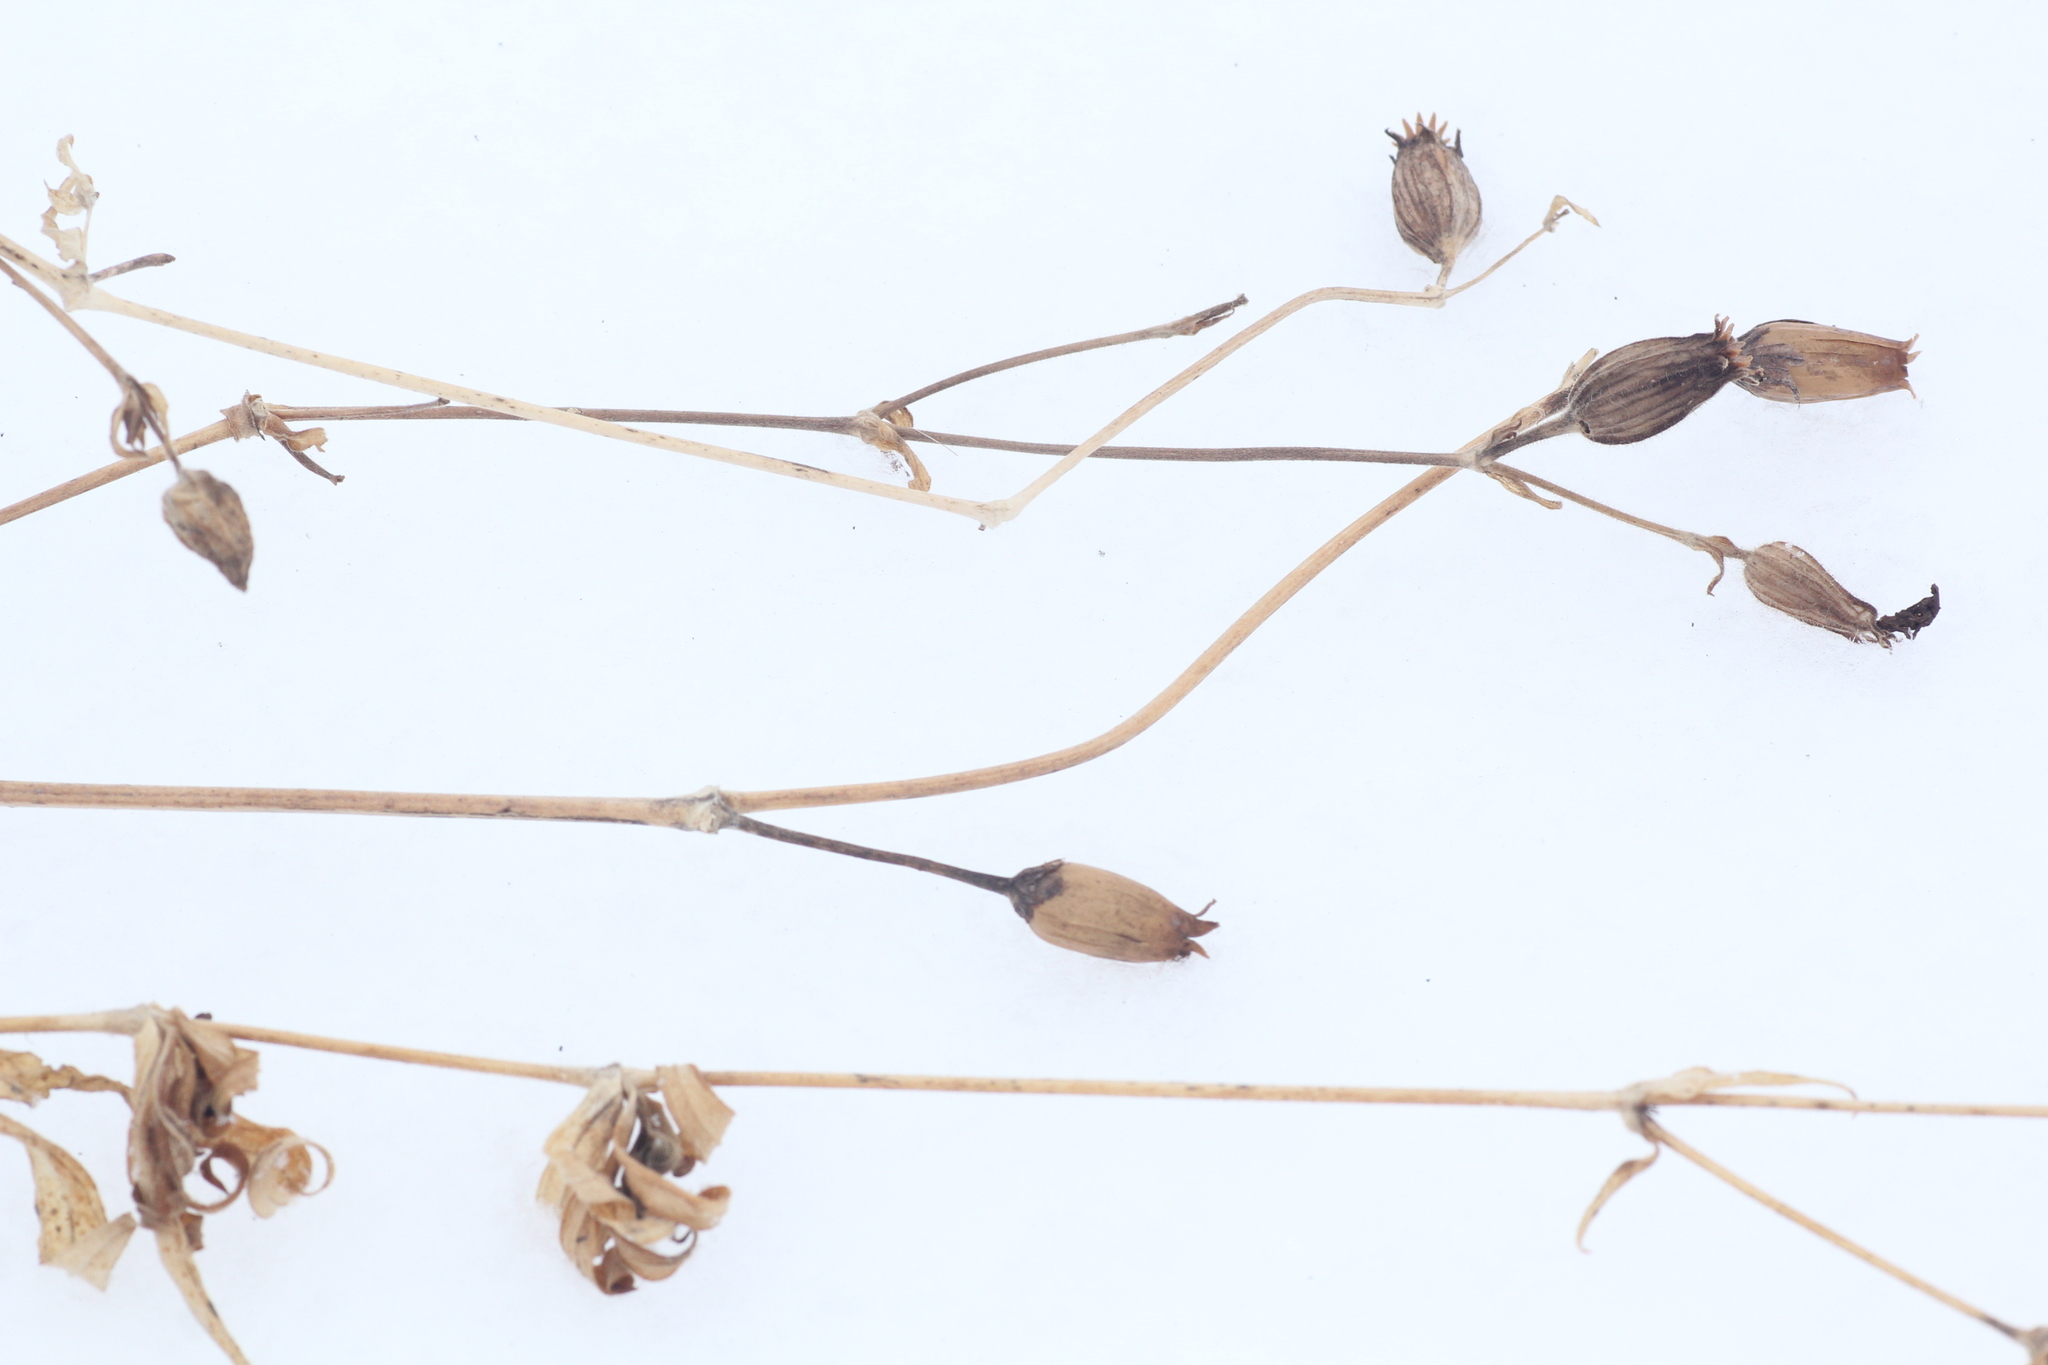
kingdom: Plantae
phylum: Tracheophyta
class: Magnoliopsida
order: Caryophyllales
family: Caryophyllaceae
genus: Silene
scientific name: Silene latifolia
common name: White campion
